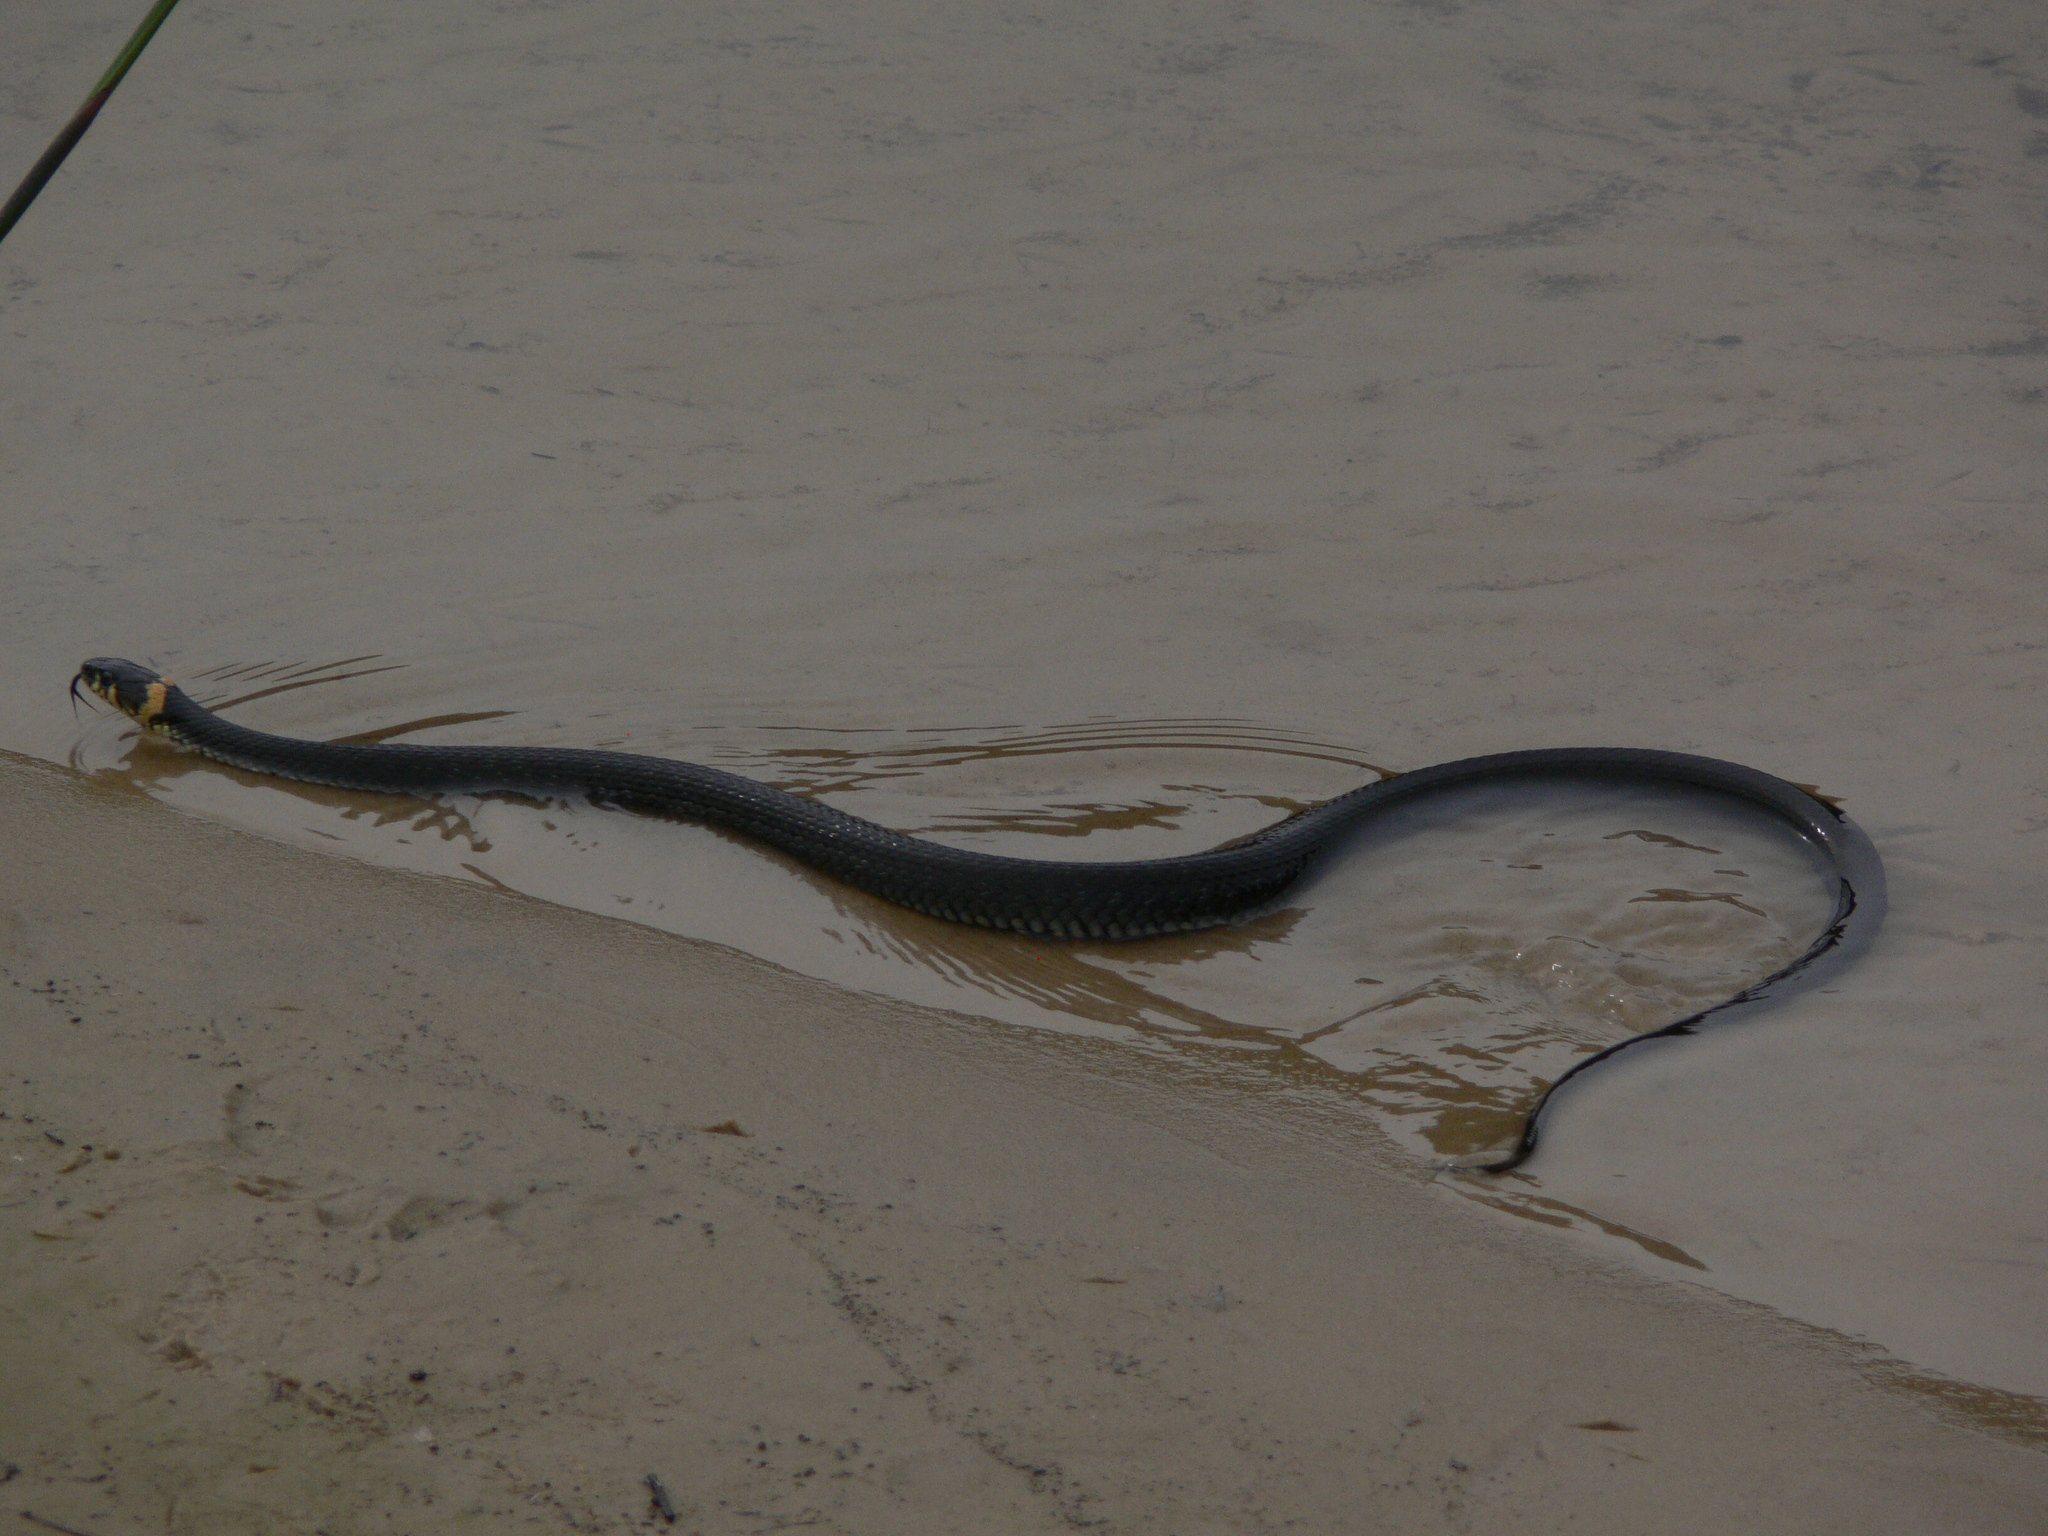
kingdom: Animalia
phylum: Chordata
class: Squamata
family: Colubridae
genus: Natrix
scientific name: Natrix natrix
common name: Grass snake
